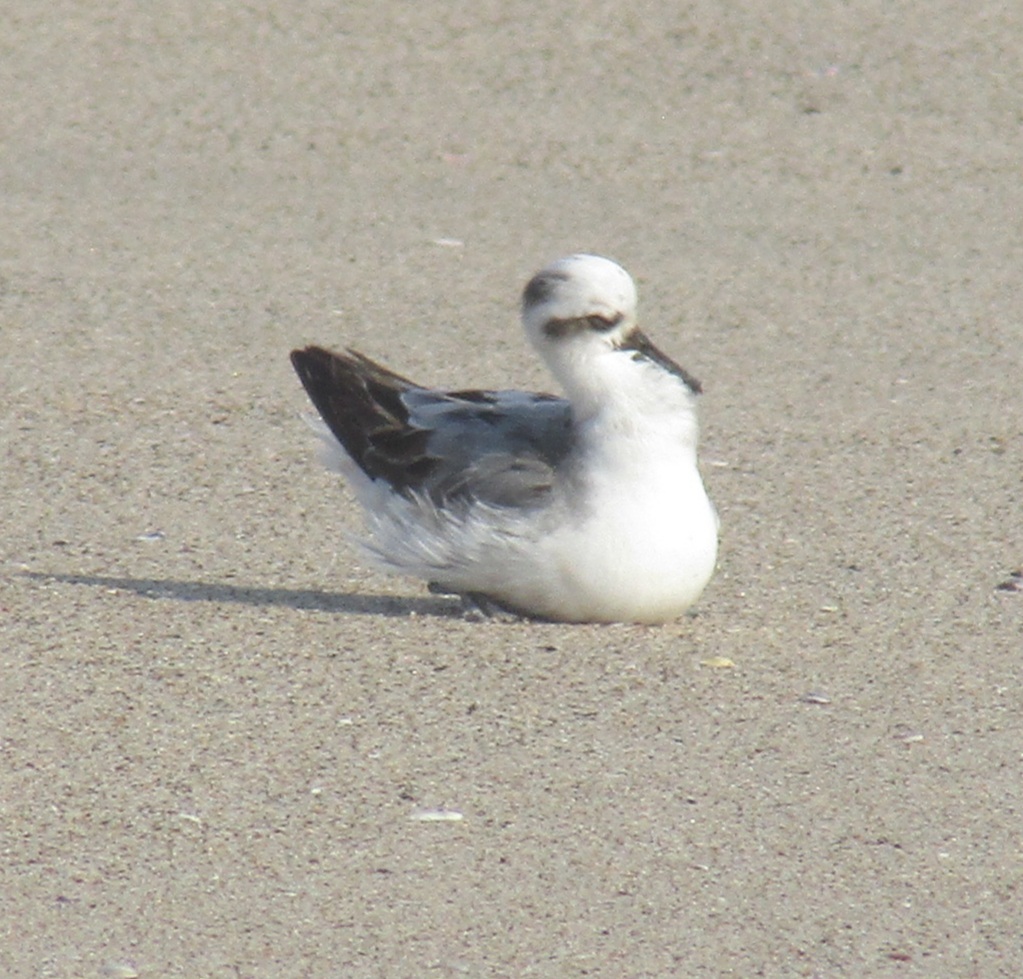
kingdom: Animalia
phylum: Chordata
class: Aves
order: Charadriiformes
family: Scolopacidae
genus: Phalaropus
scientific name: Phalaropus fulicarius
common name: Red phalarope
